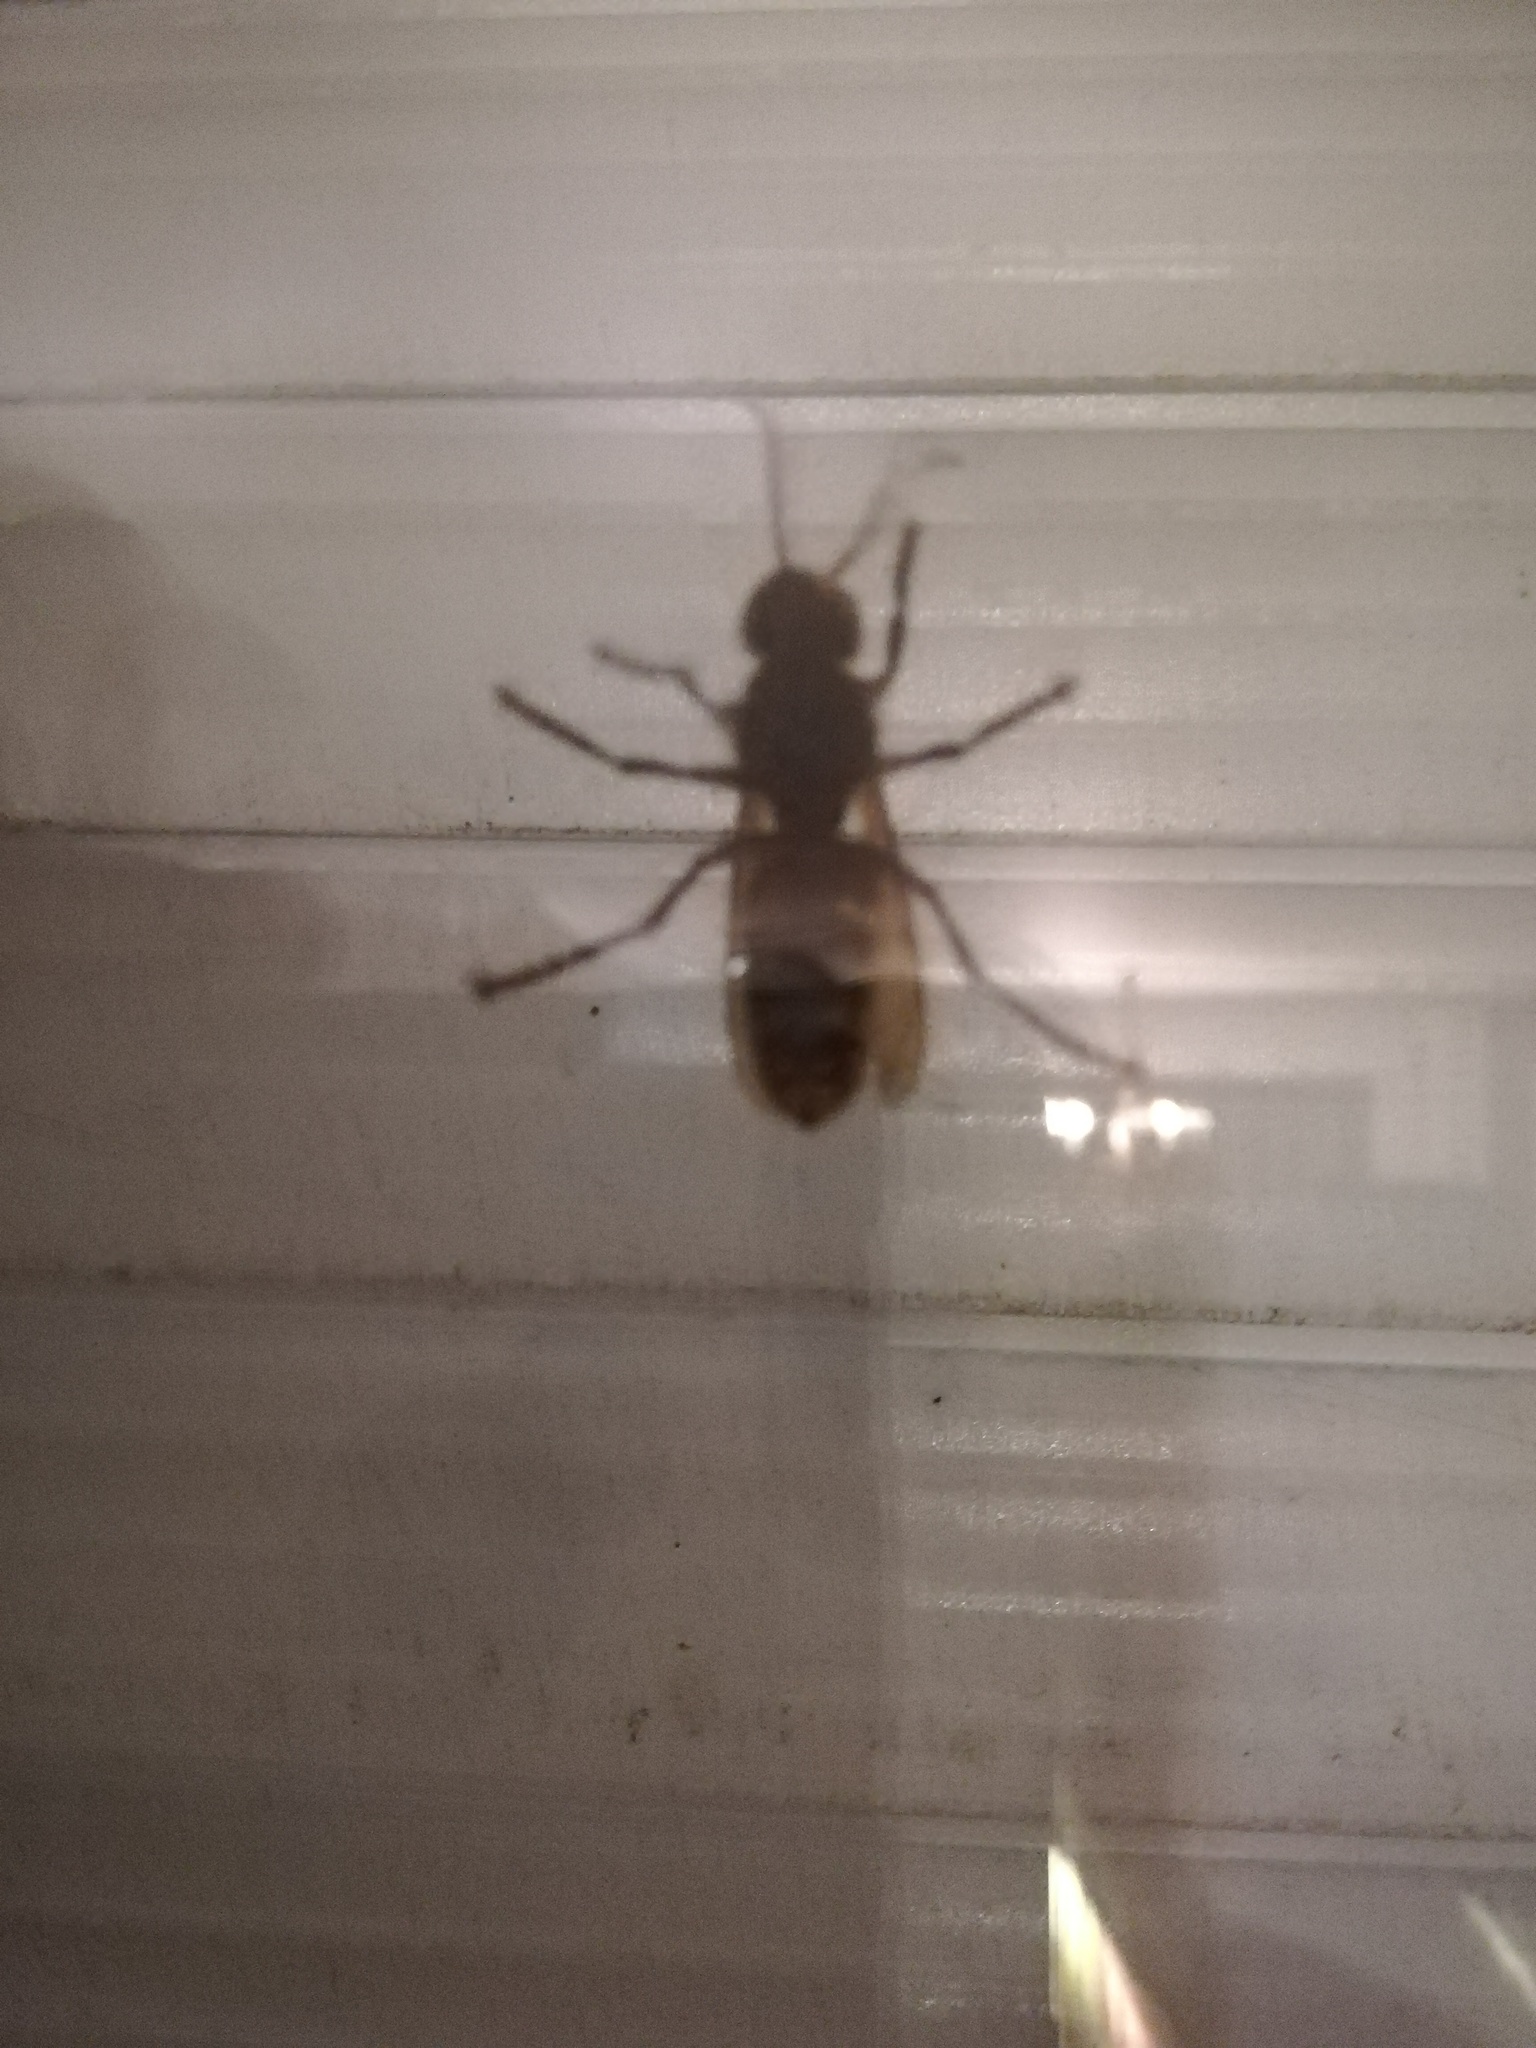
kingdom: Animalia
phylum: Arthropoda
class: Insecta
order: Hymenoptera
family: Vespidae
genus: Vespa
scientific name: Vespa crabro
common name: Hornet
